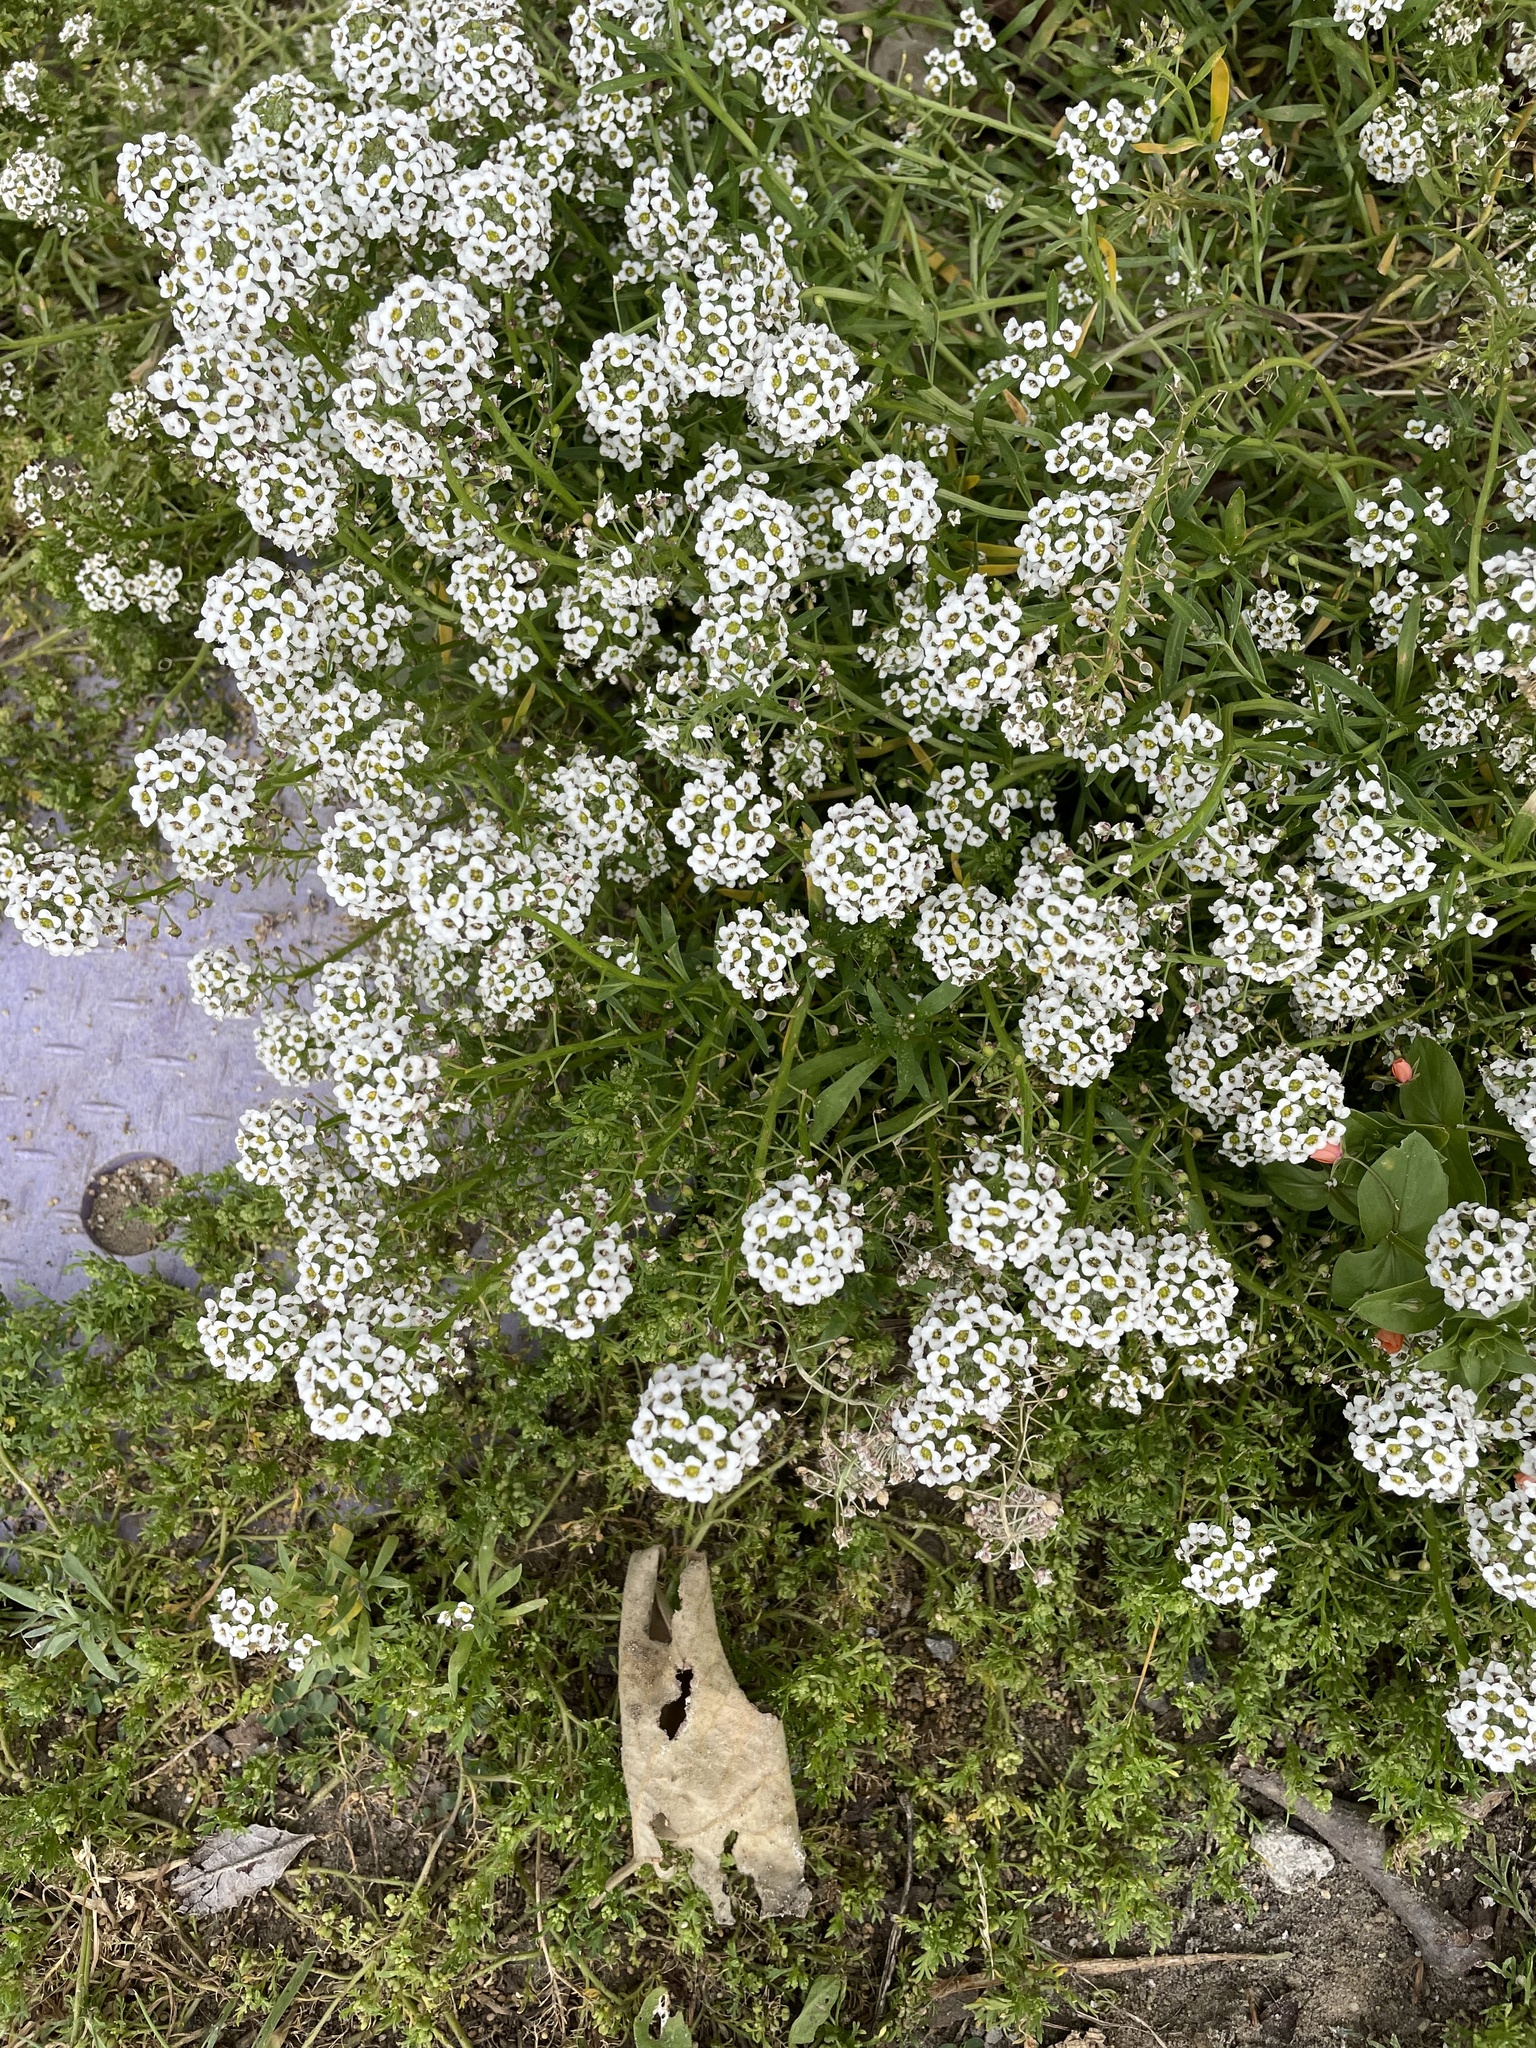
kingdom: Plantae
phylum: Tracheophyta
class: Magnoliopsida
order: Brassicales
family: Brassicaceae
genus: Lobularia
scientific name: Lobularia maritima
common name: Sweet alison
